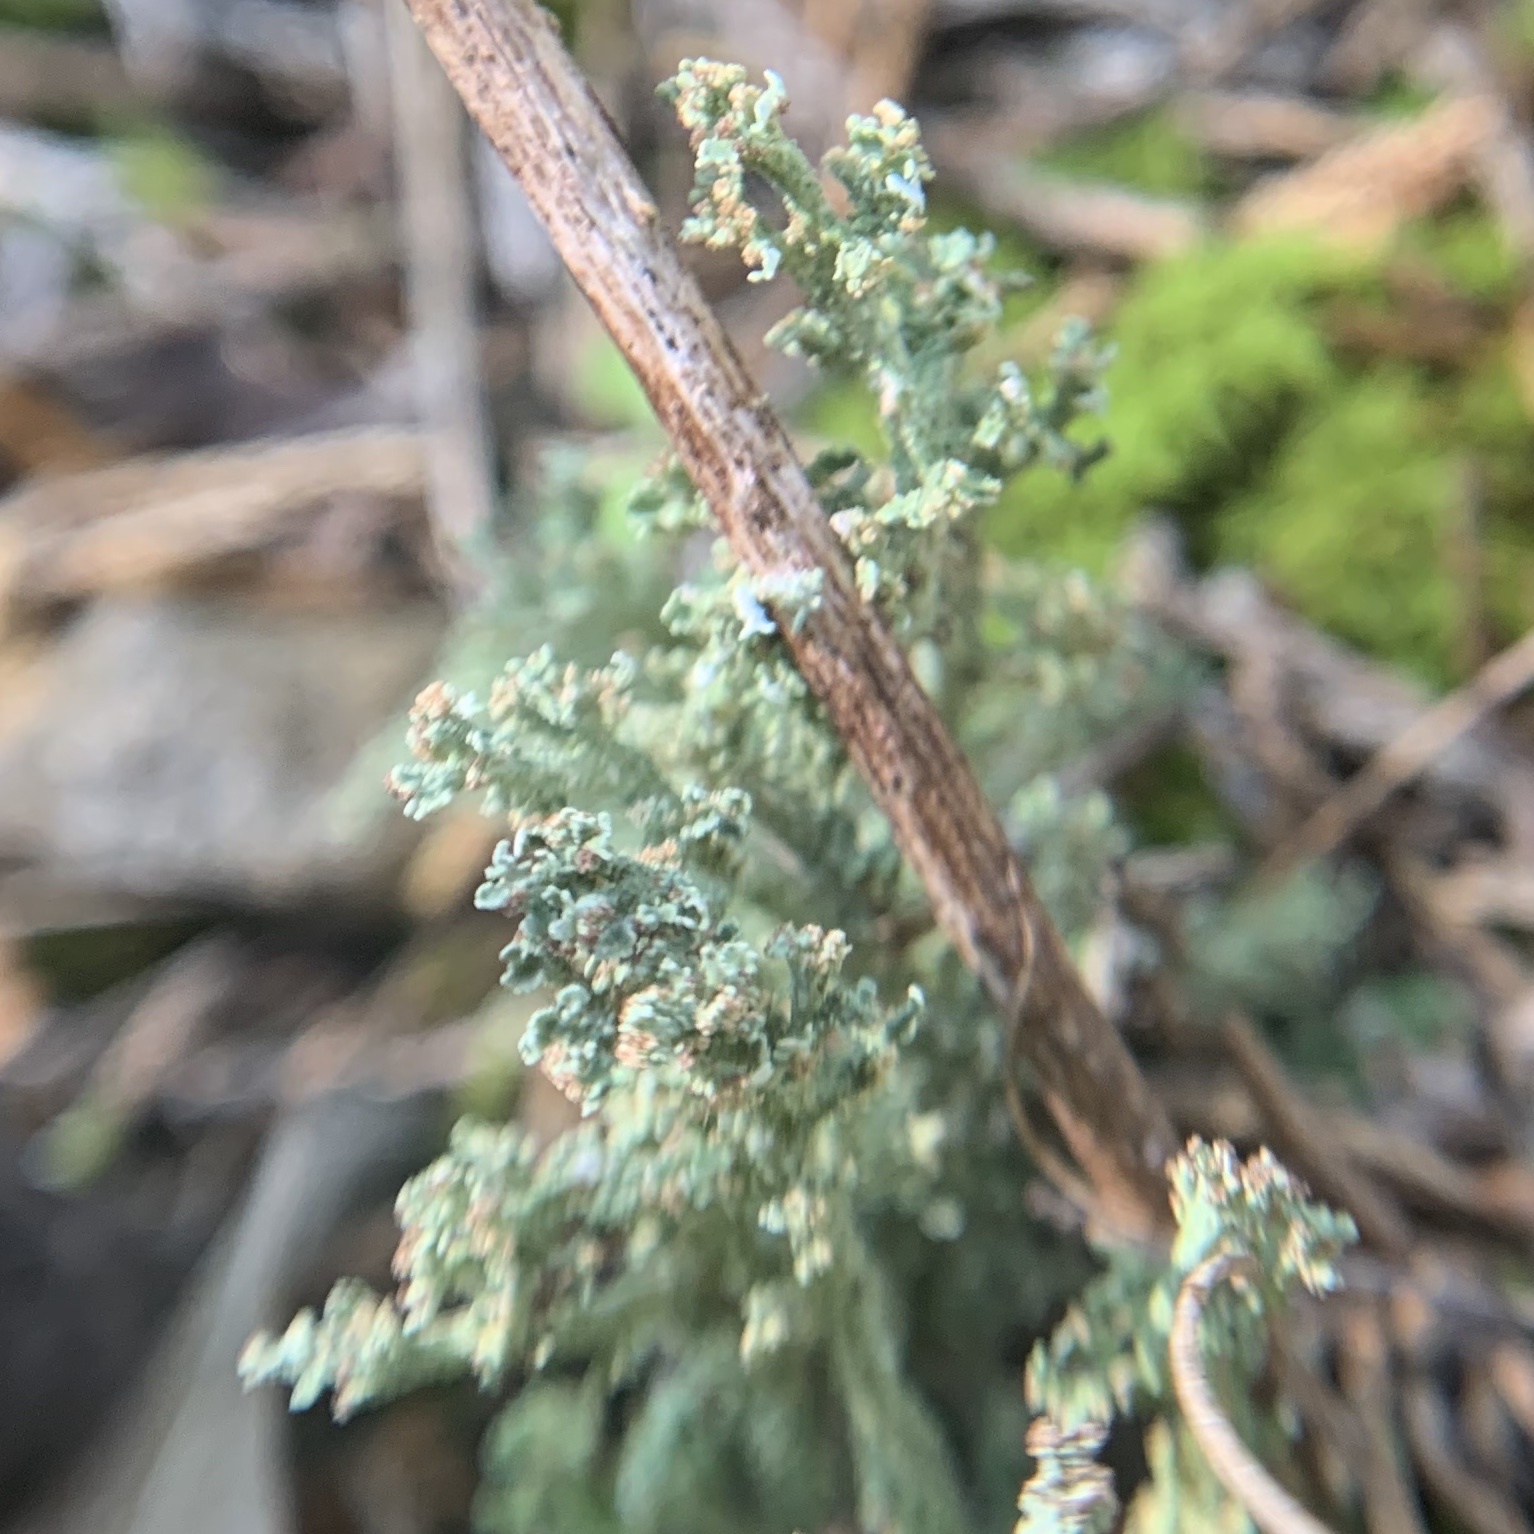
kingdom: Fungi
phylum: Ascomycota
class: Lecanoromycetes
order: Lecanorales
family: Cladoniaceae
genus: Cladonia
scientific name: Cladonia squamosa
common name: Dragon horn
